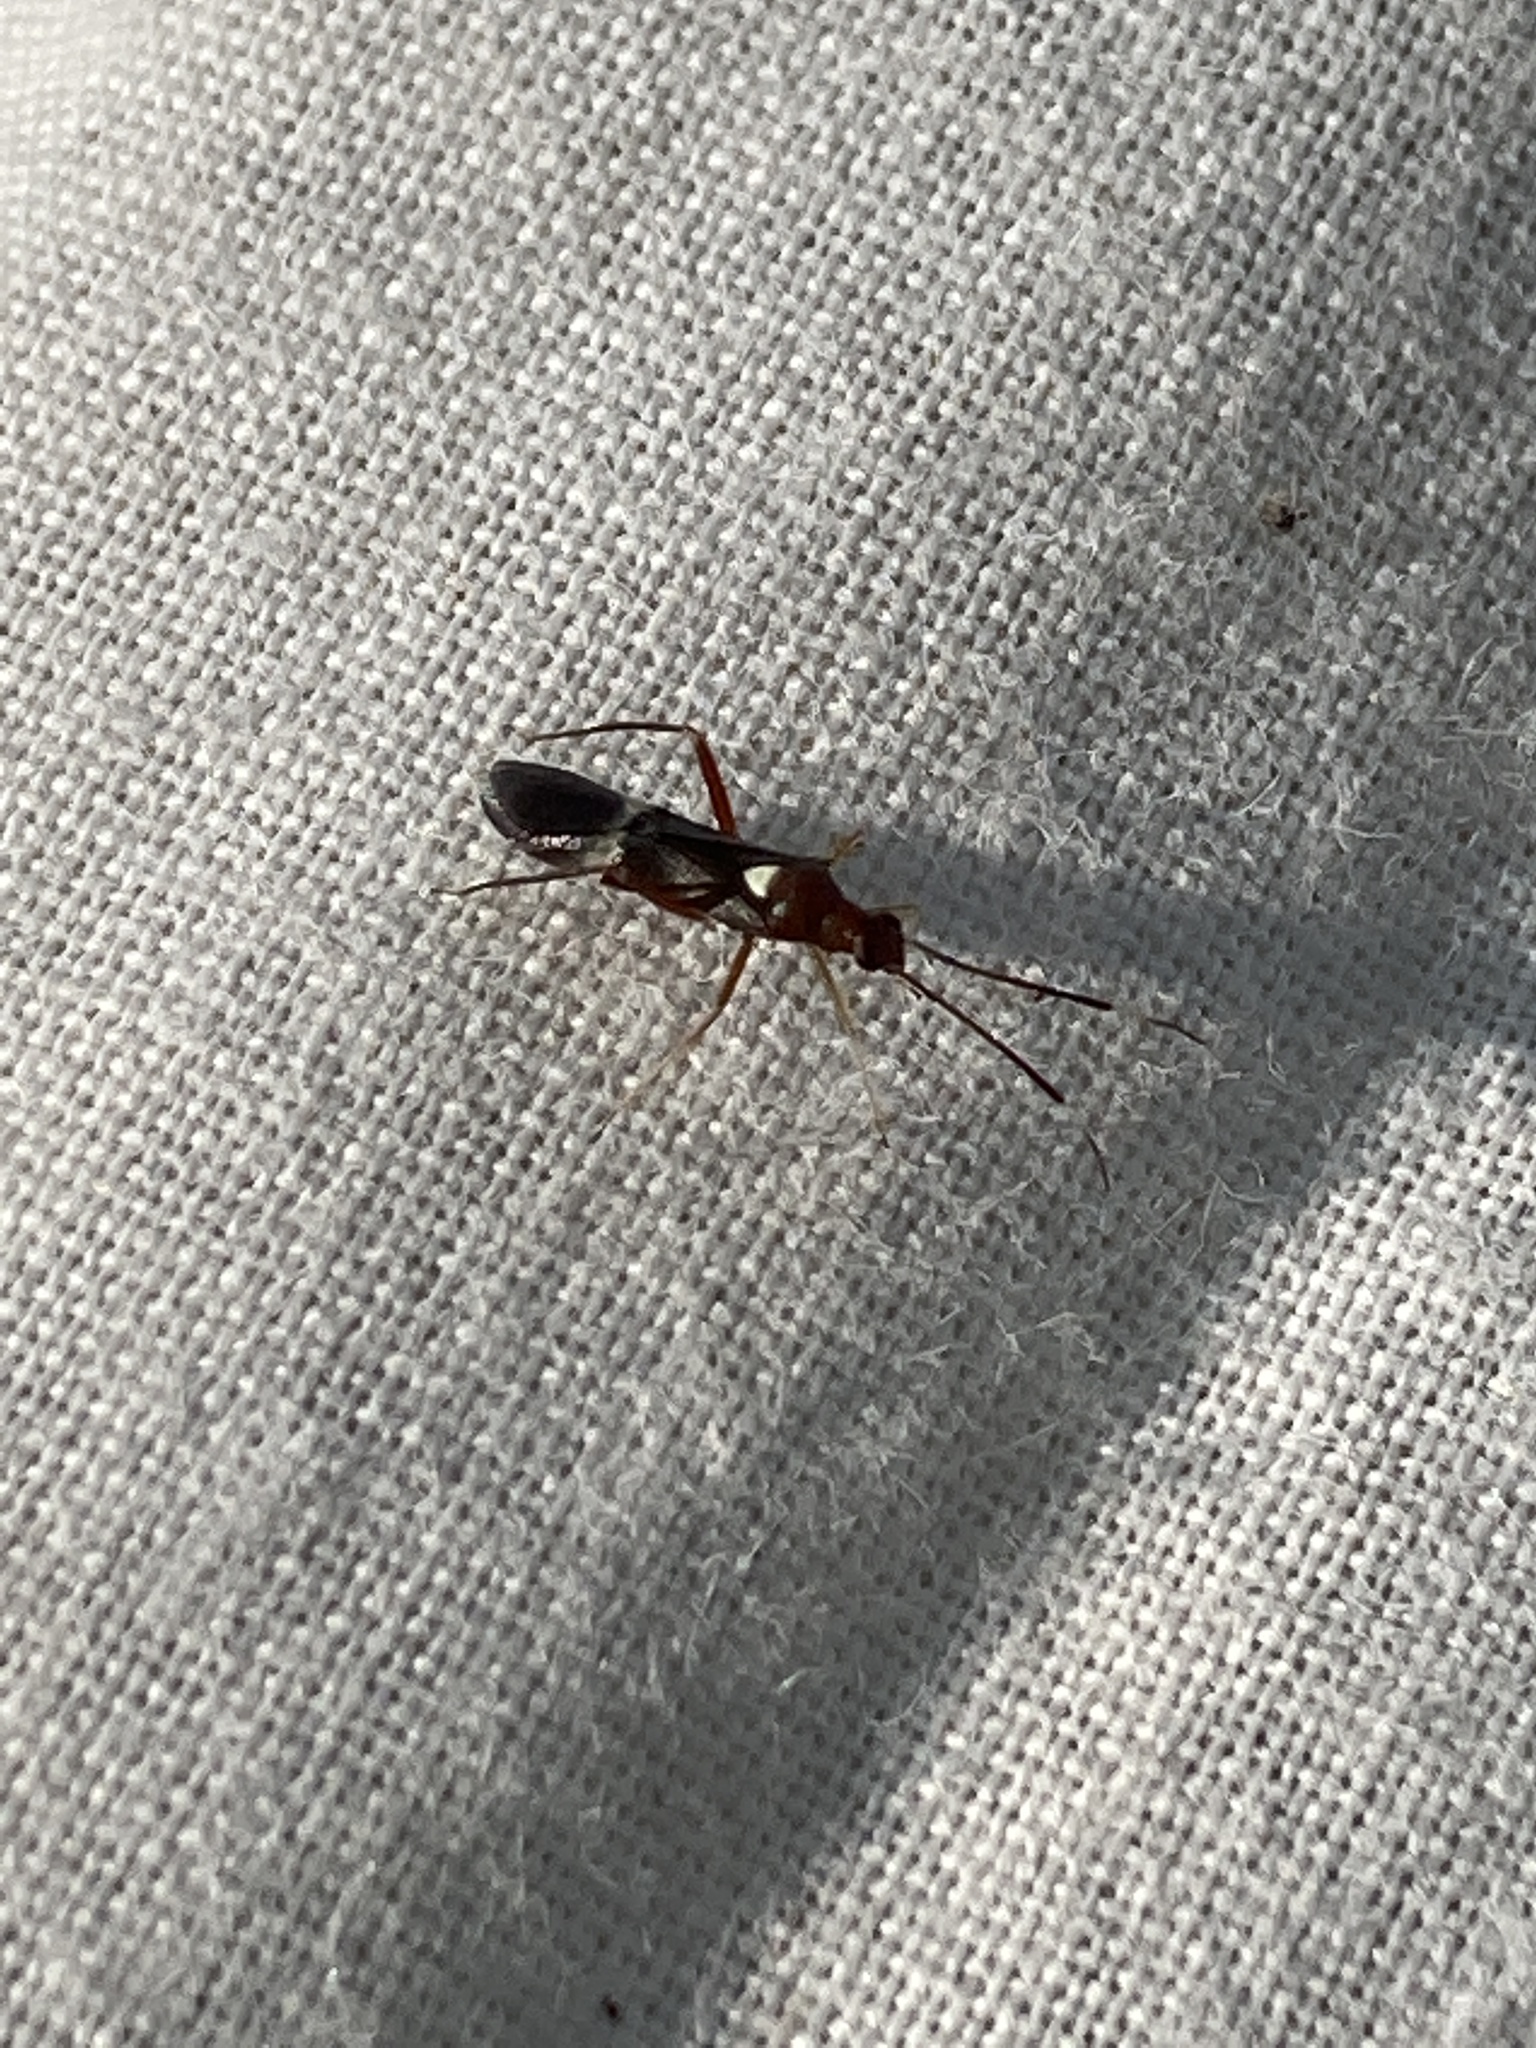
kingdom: Animalia
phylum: Arthropoda
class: Insecta
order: Hemiptera
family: Miridae
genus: Pseudoxenetus
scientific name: Pseudoxenetus regalis
